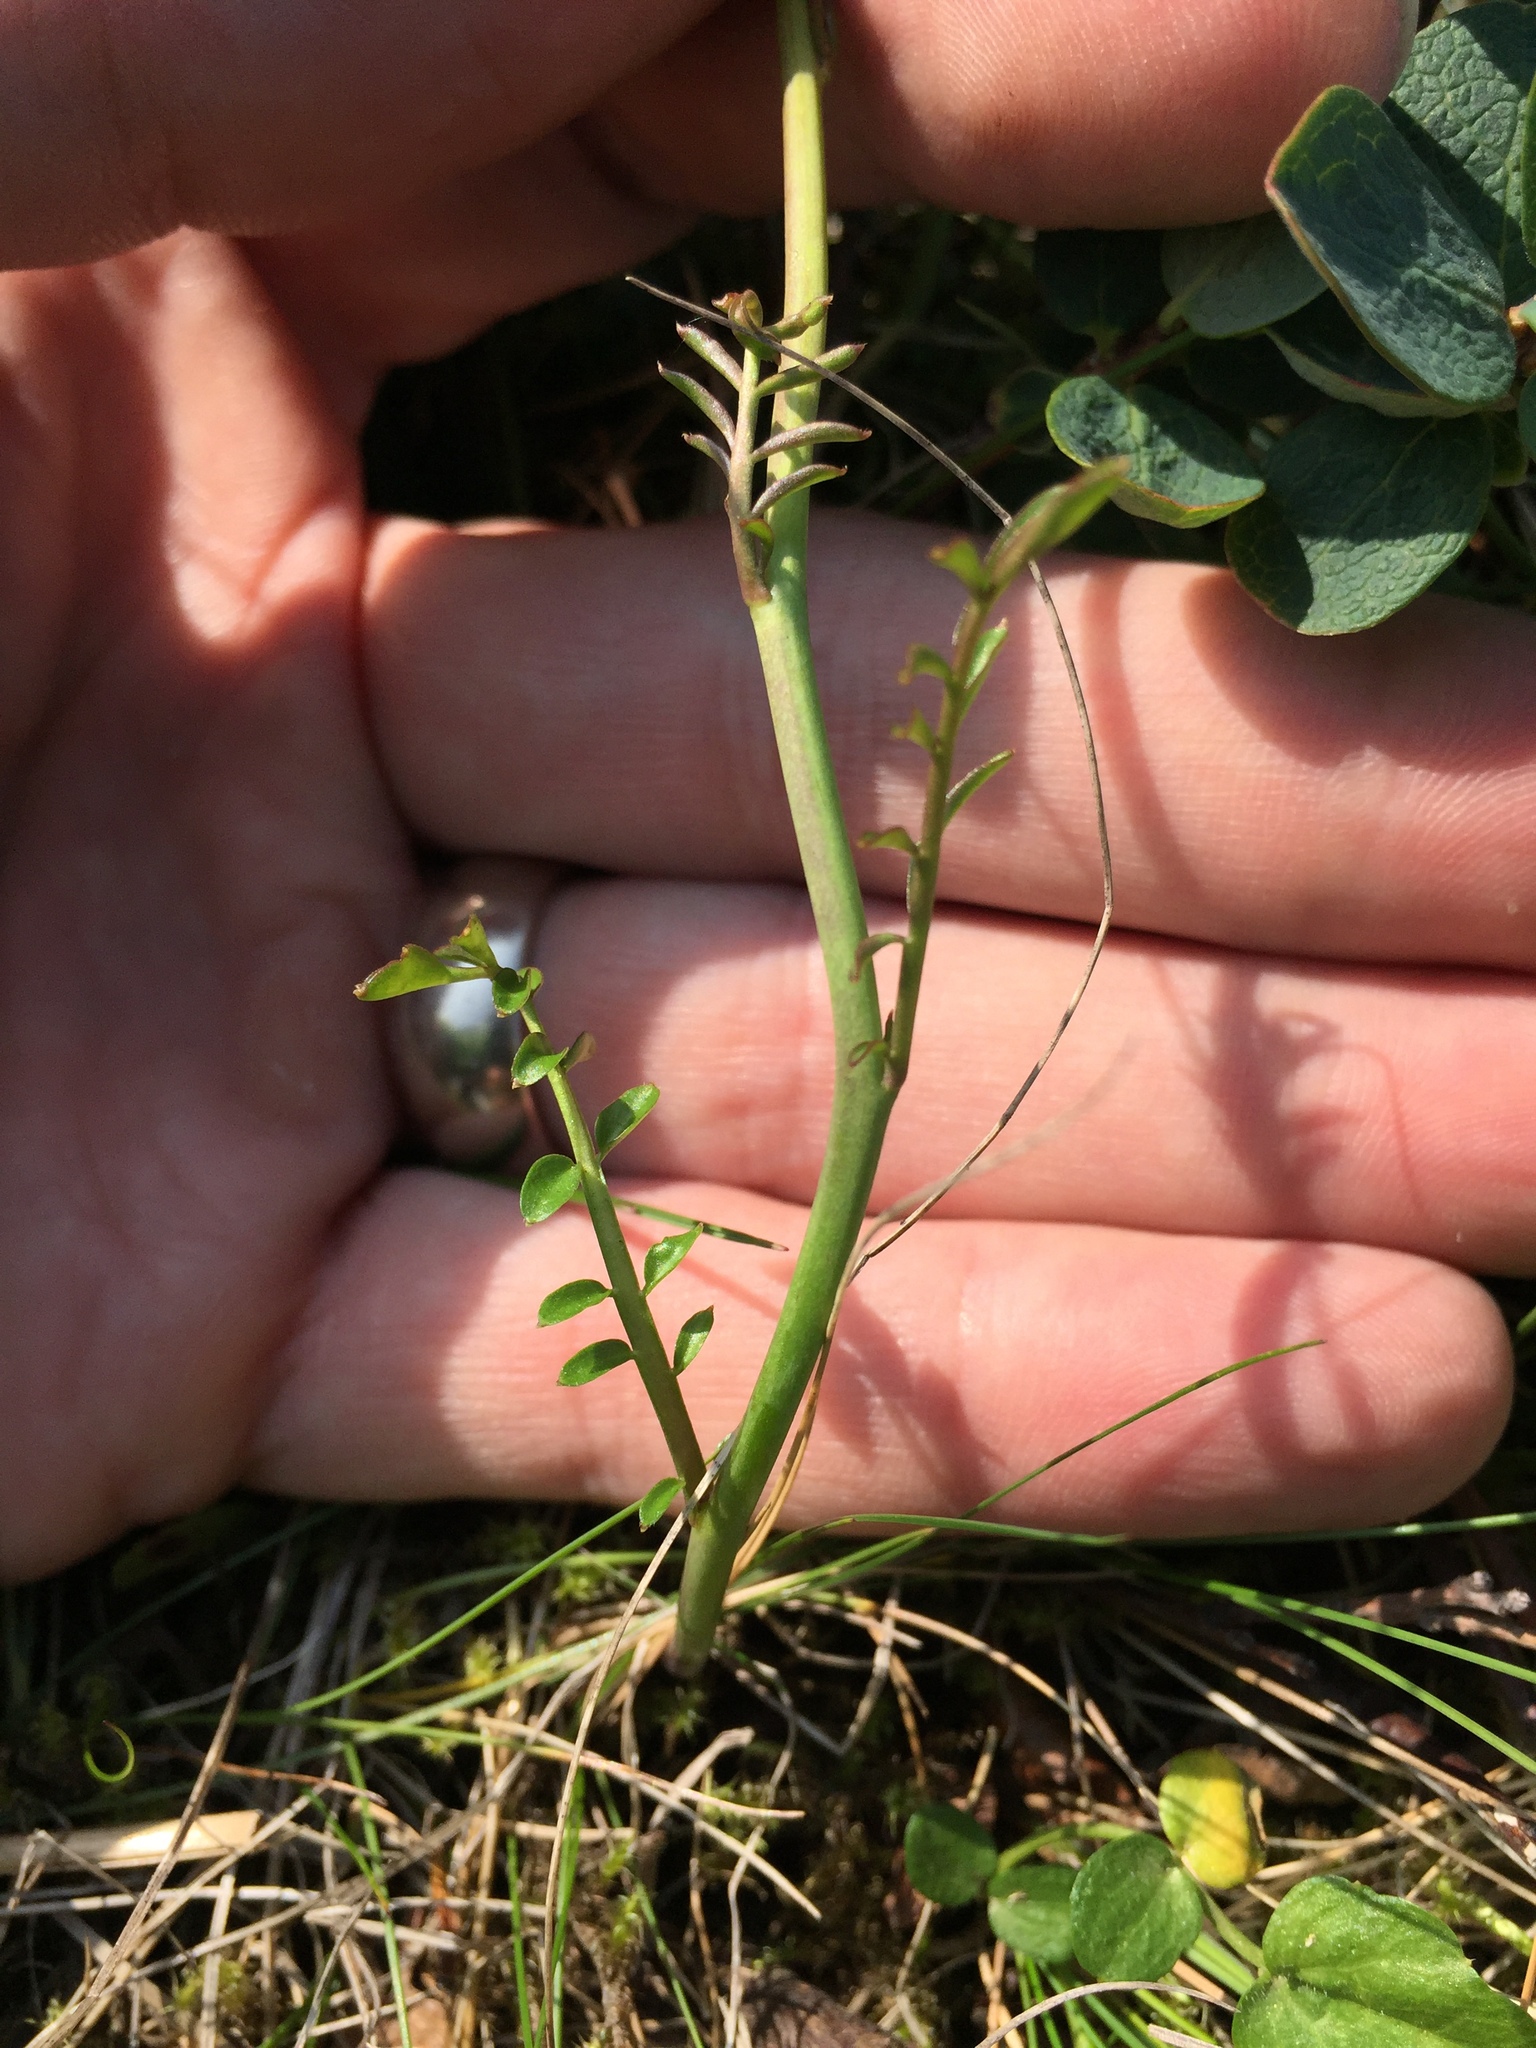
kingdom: Plantae
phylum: Tracheophyta
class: Magnoliopsida
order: Brassicales
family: Brassicaceae
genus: Cardamine
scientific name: Cardamine nymanii
